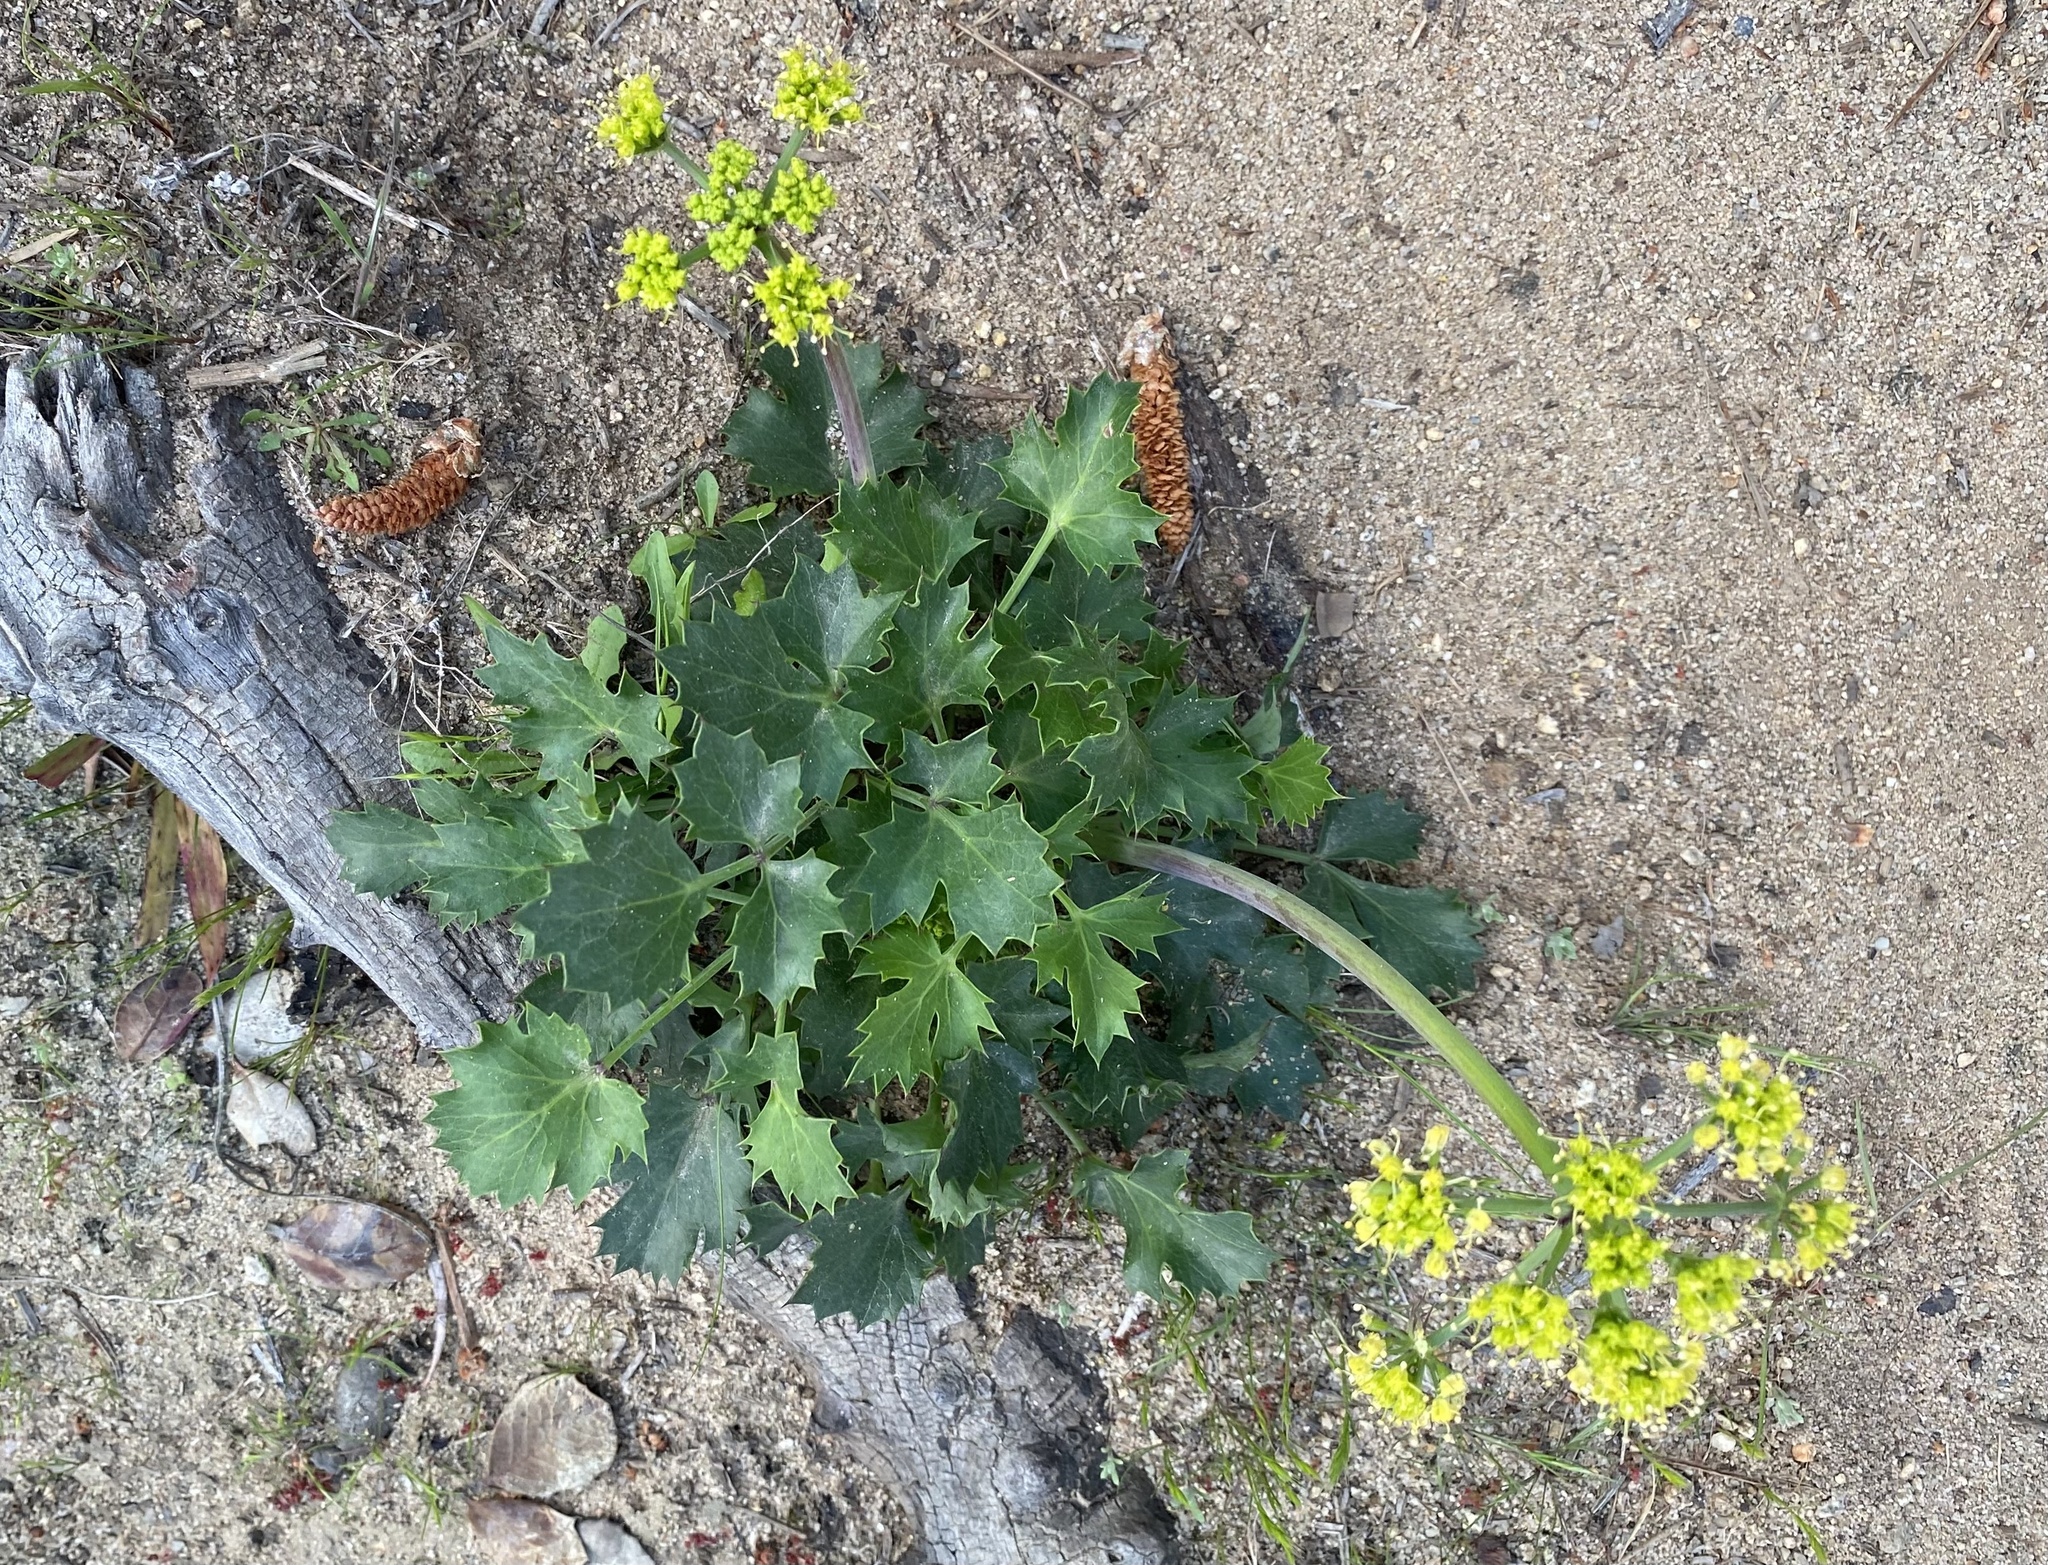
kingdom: Plantae
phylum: Tracheophyta
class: Magnoliopsida
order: Apiales
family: Apiaceae
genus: Lomatium
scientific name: Lomatium lucidum
